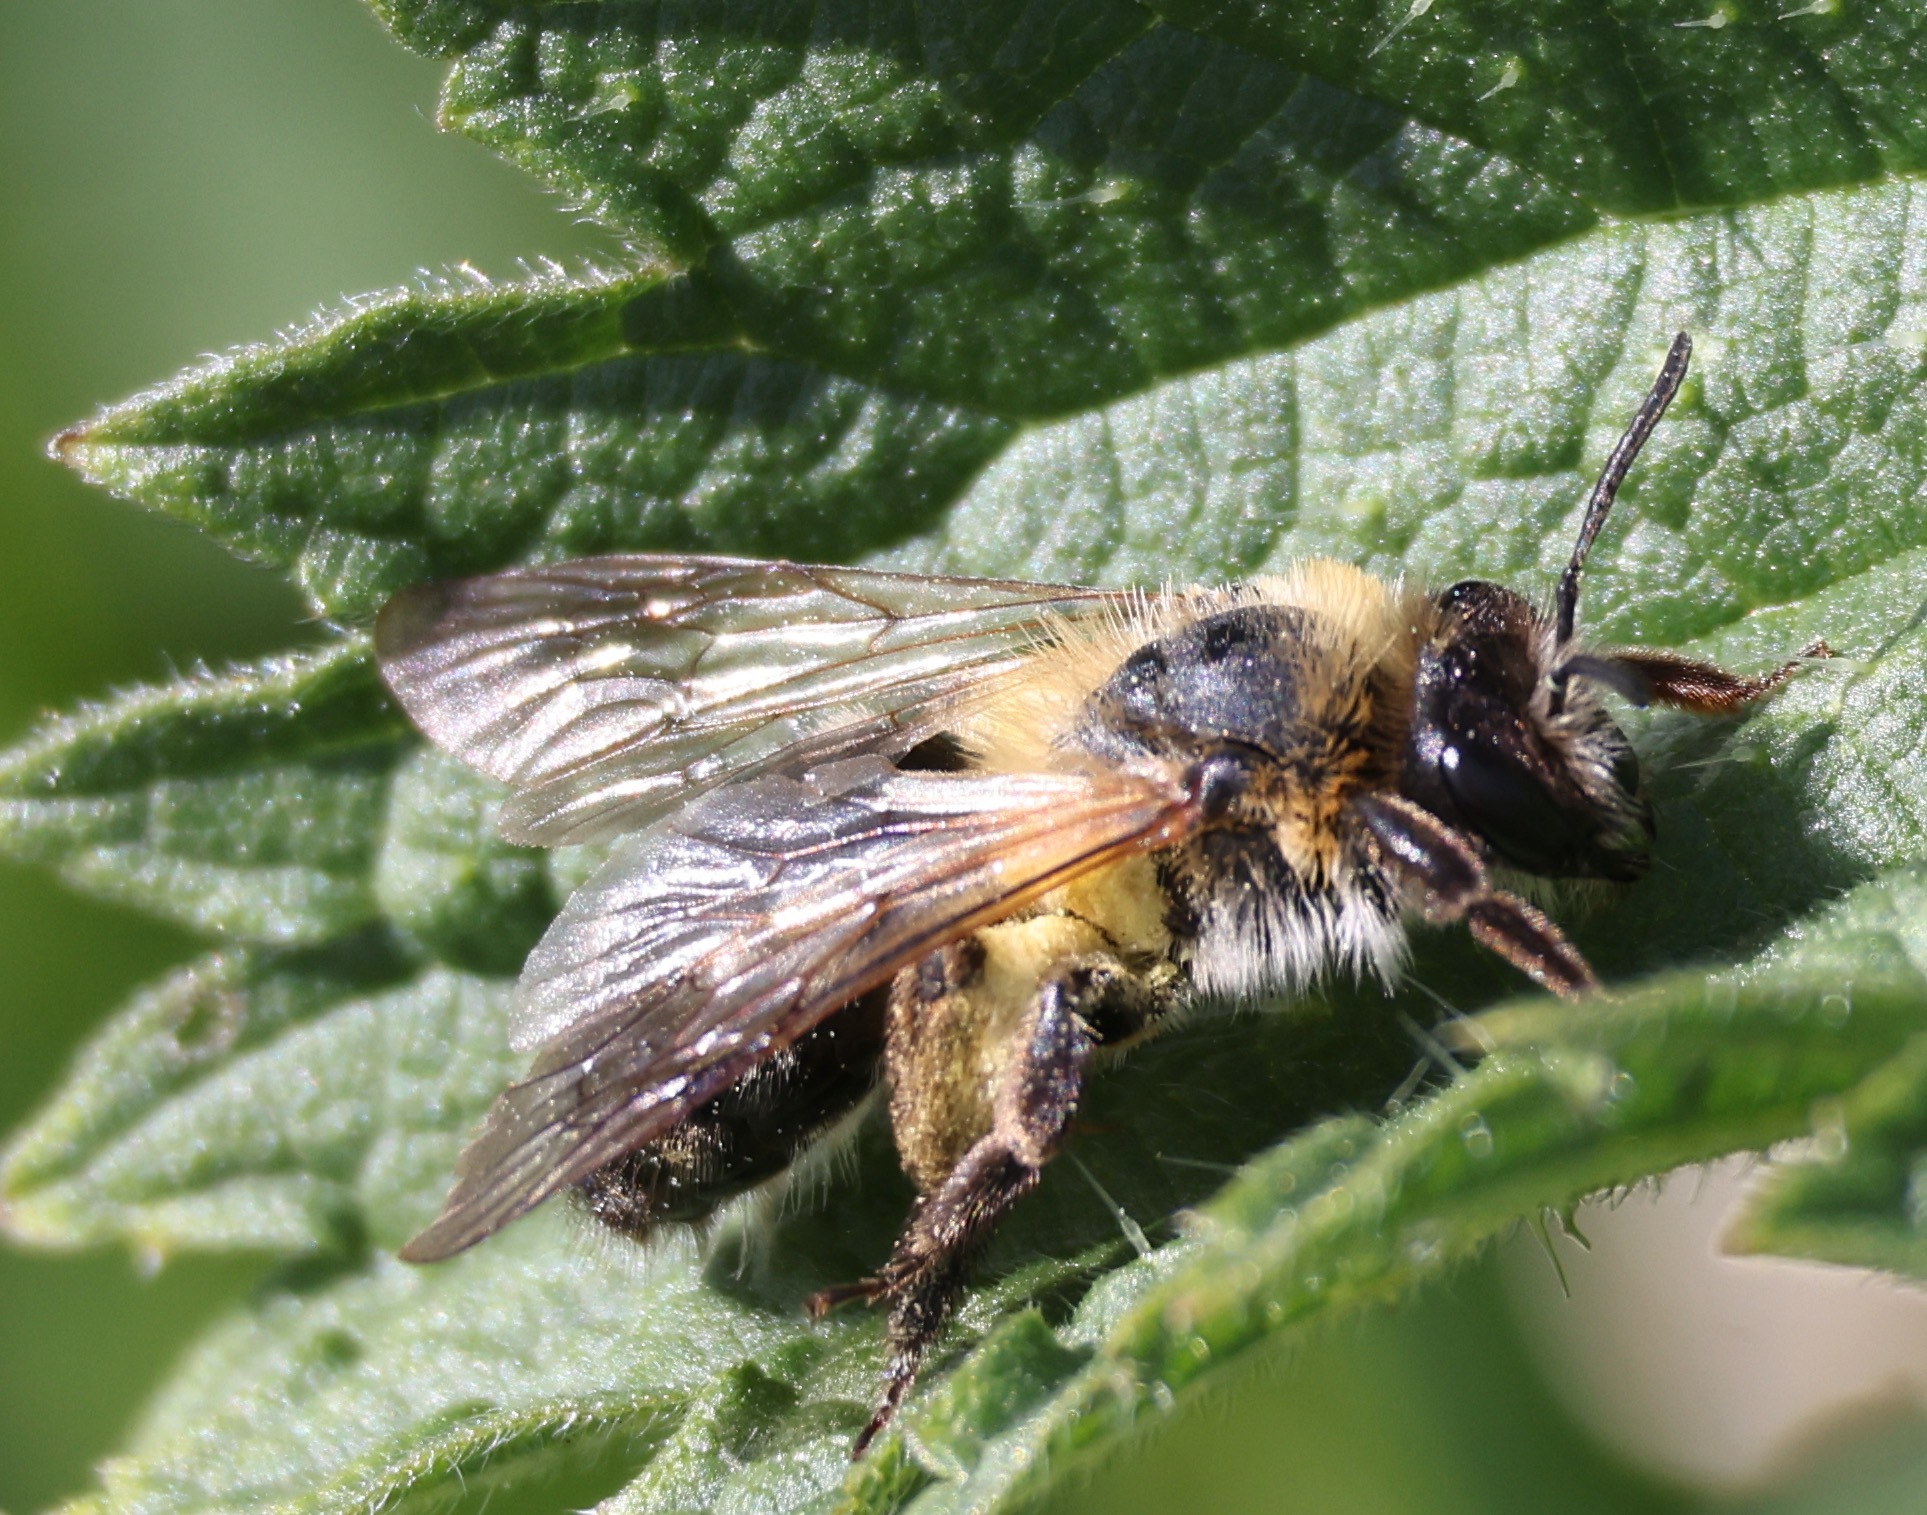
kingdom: Animalia
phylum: Arthropoda
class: Insecta
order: Hymenoptera
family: Andrenidae
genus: Andrena
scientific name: Andrena nitida
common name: Grey-patched mining bee
